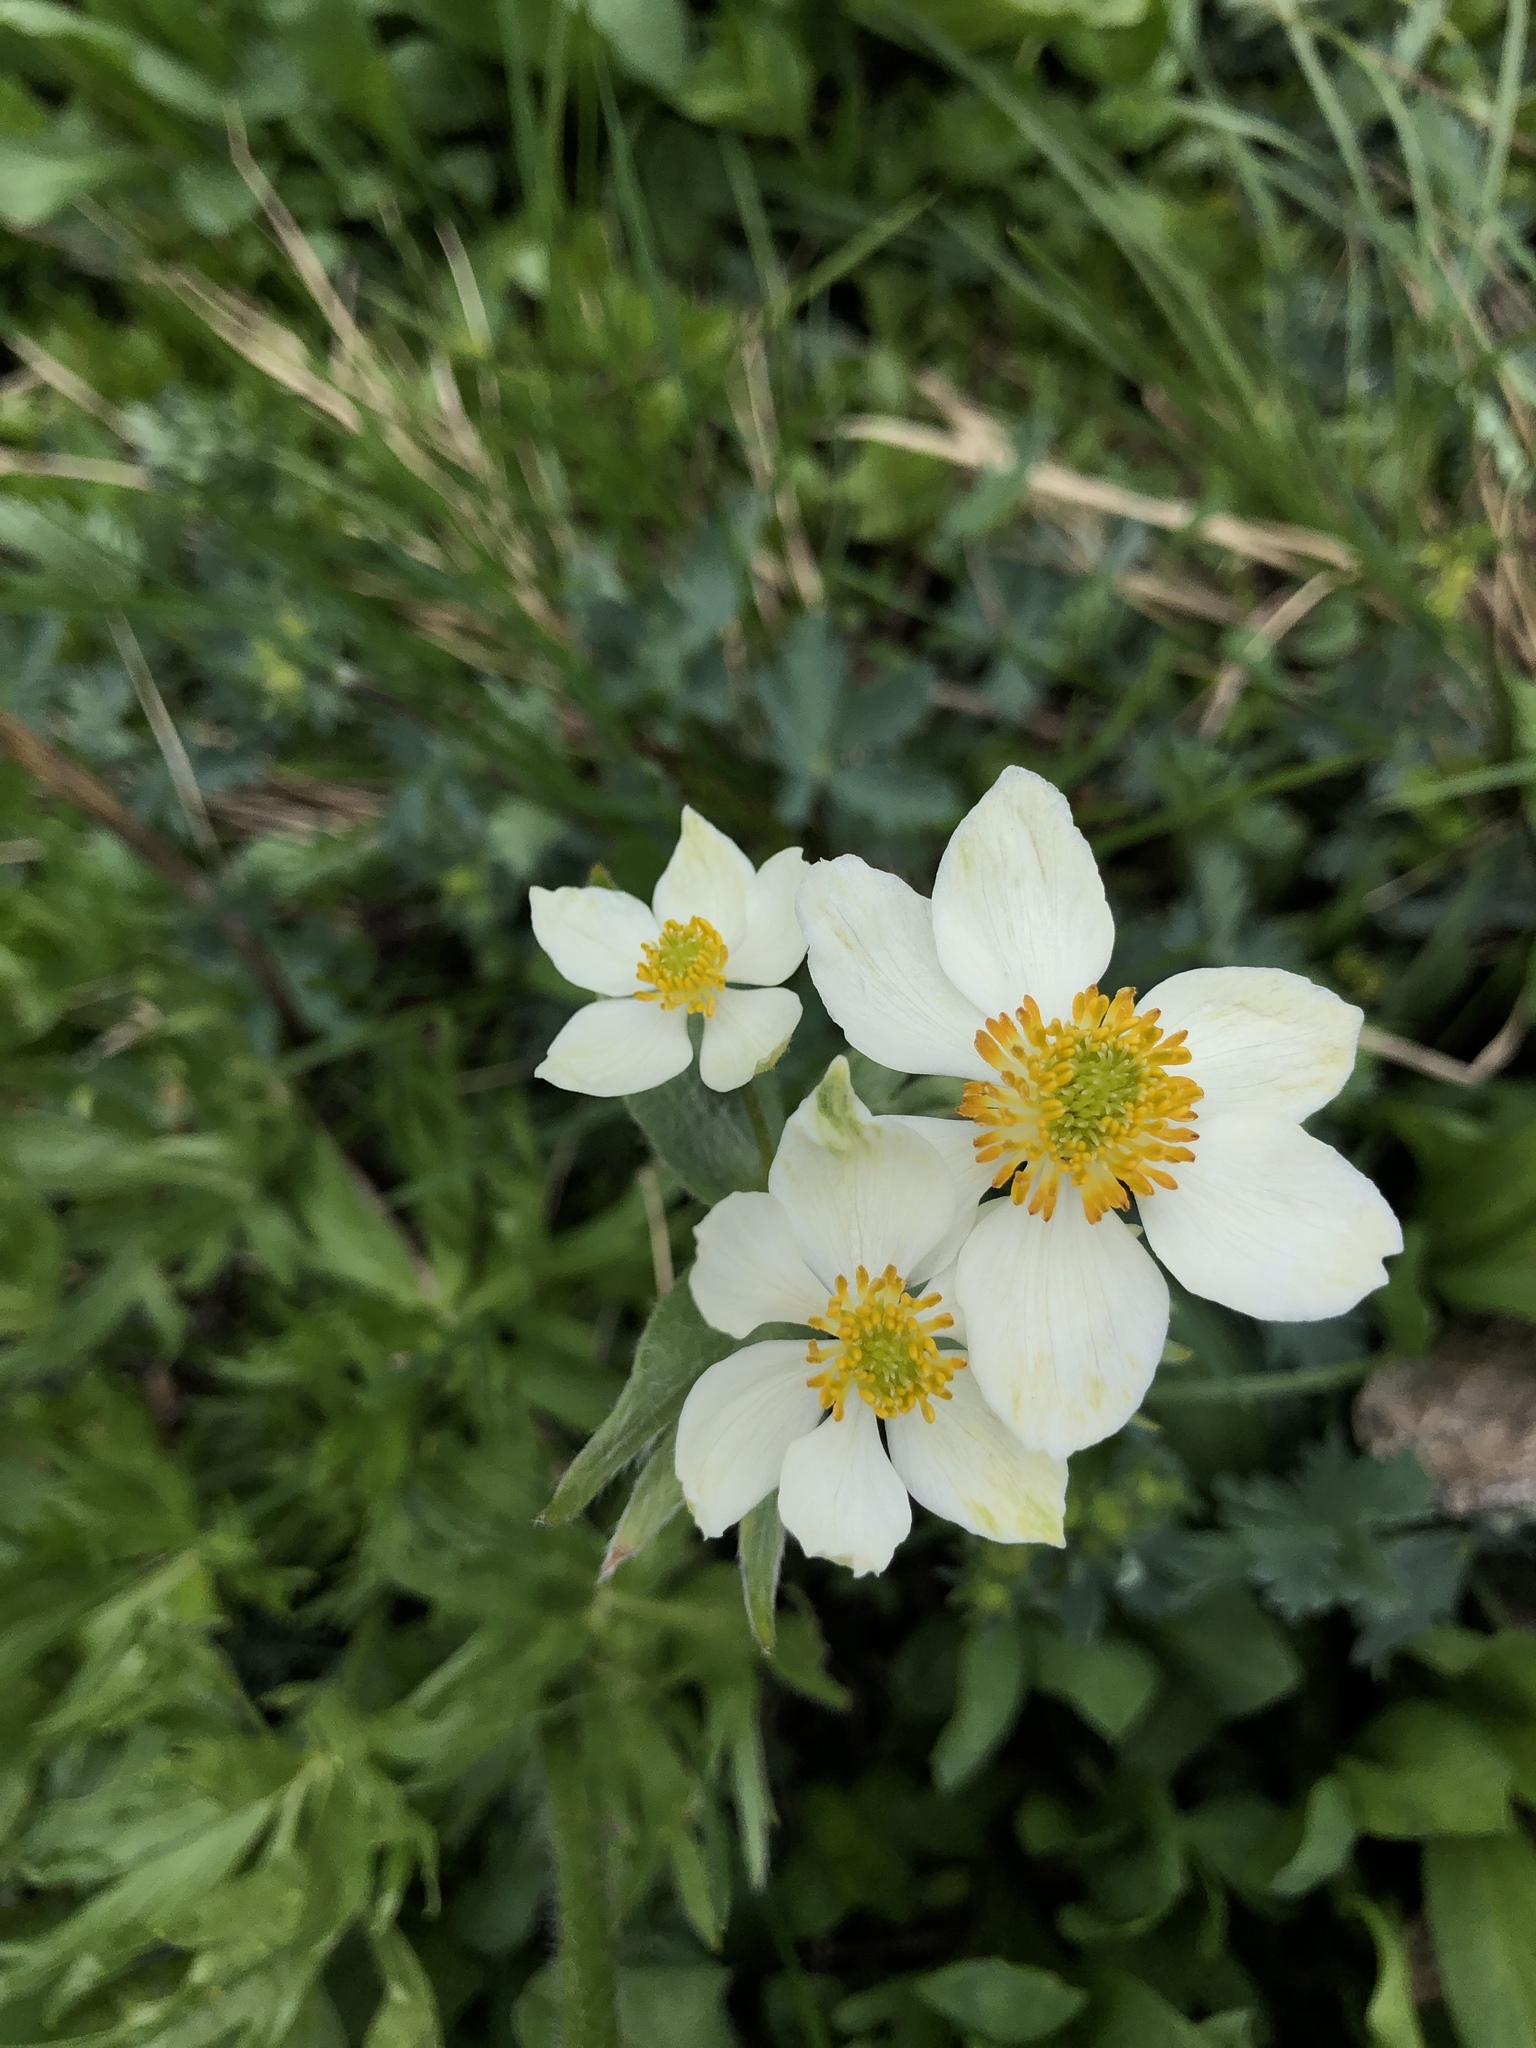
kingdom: Plantae
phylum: Tracheophyta
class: Magnoliopsida
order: Ranunculales
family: Ranunculaceae
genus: Anemonastrum
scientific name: Anemonastrum narcissiflorum
